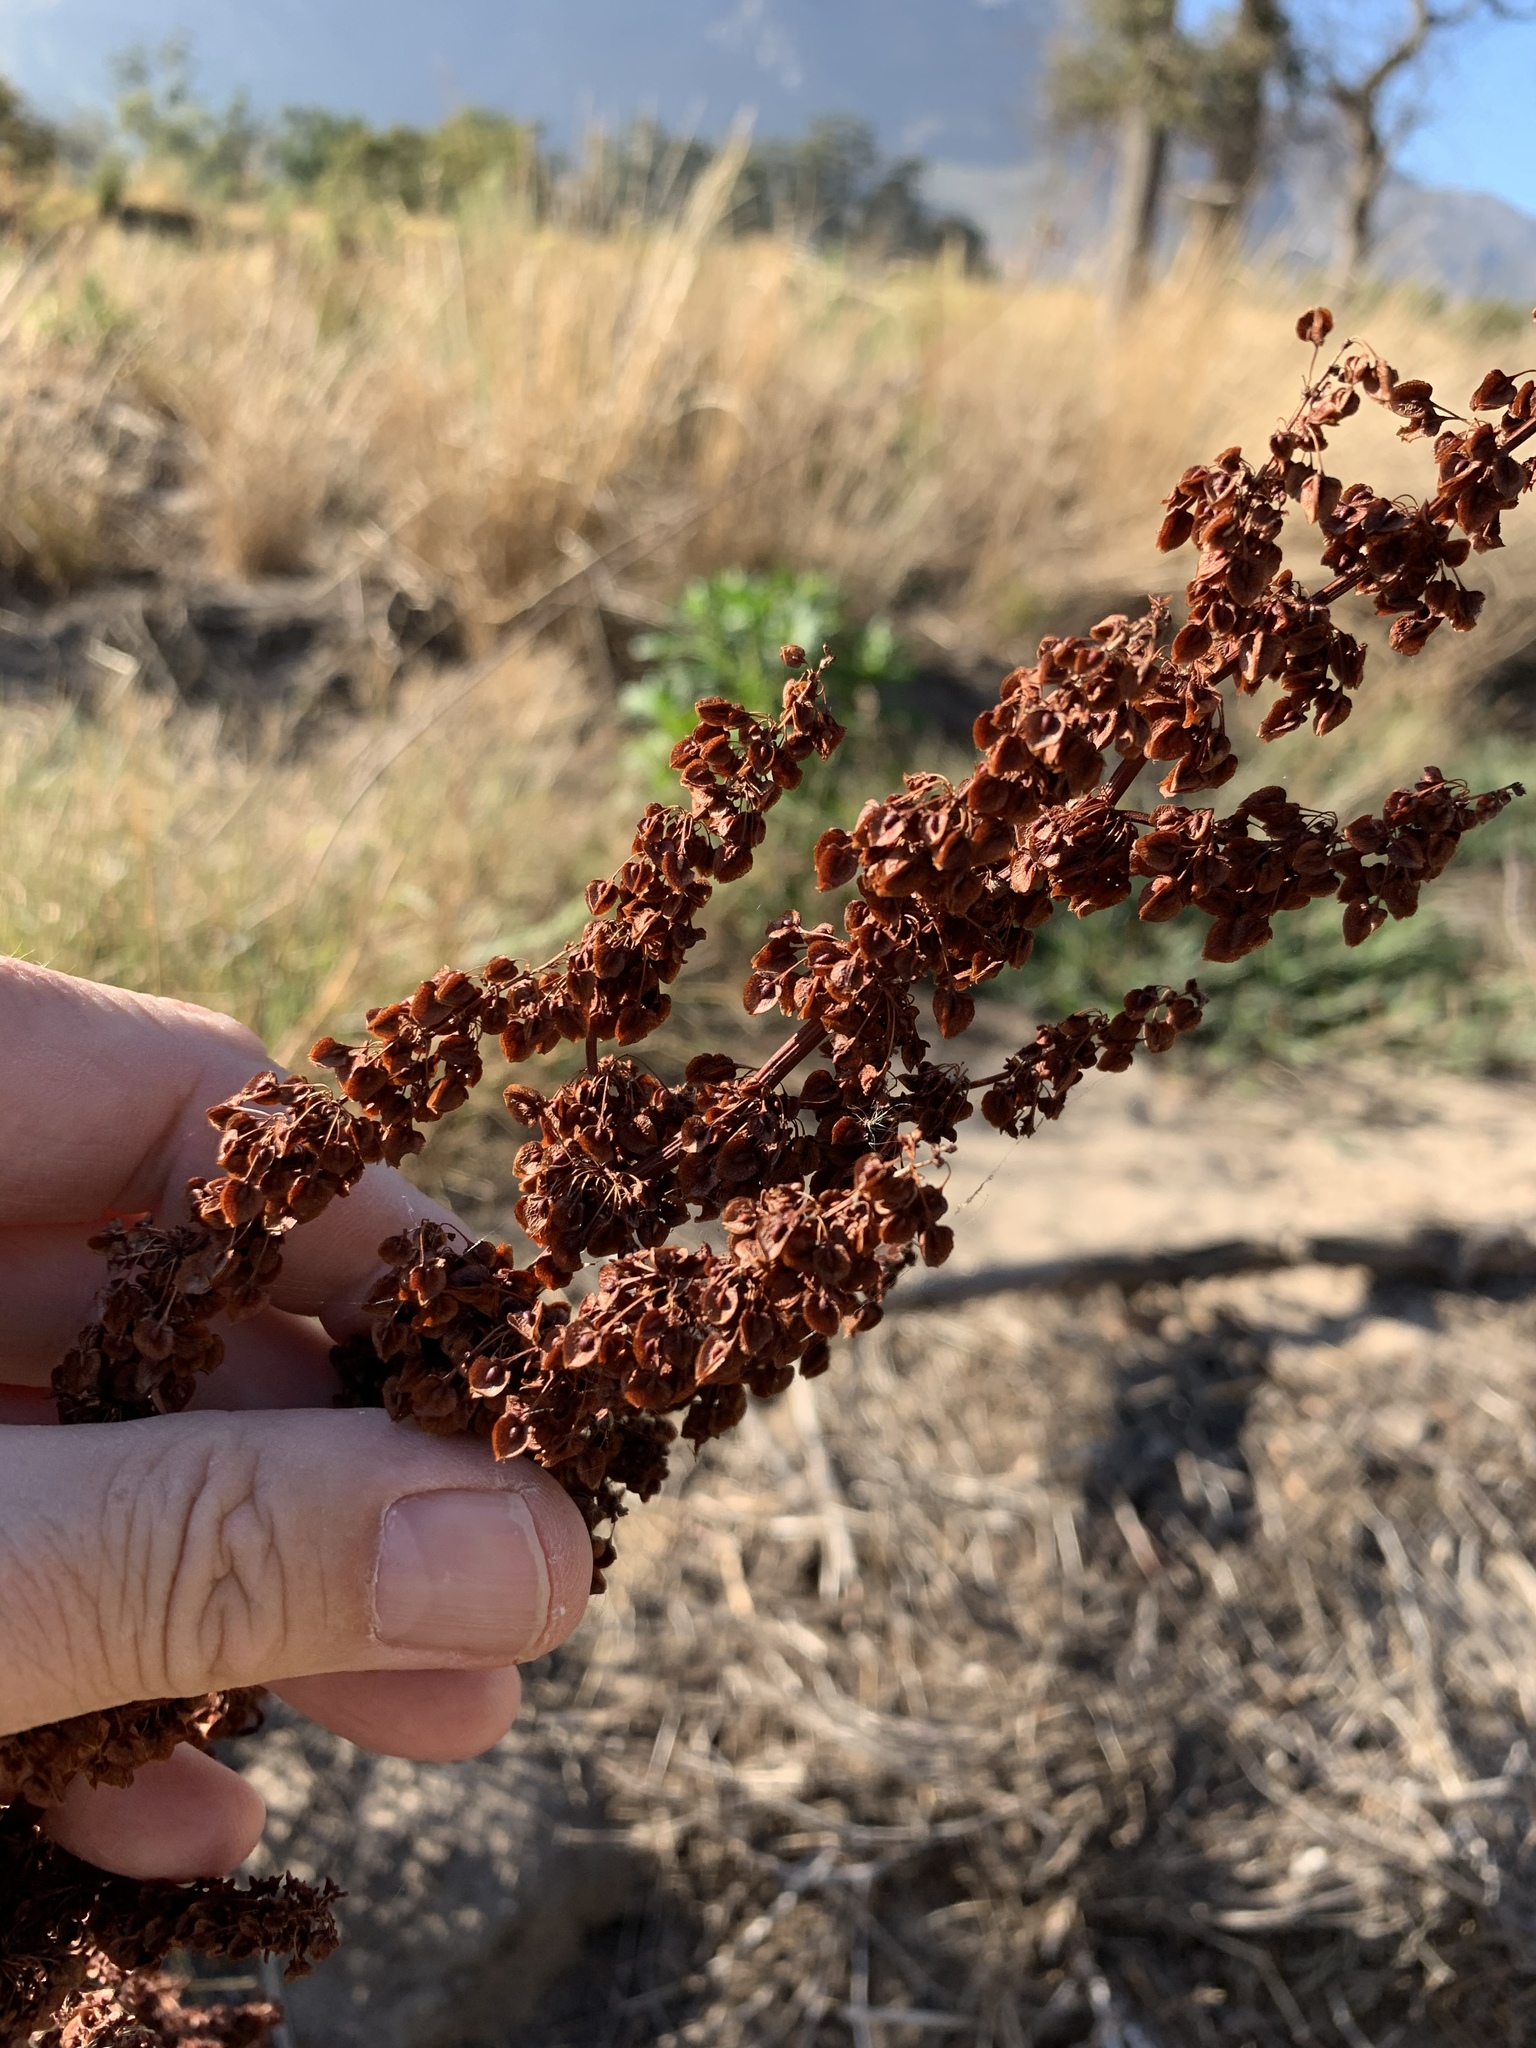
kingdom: Plantae
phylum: Tracheophyta
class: Magnoliopsida
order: Caryophyllales
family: Polygonaceae
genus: Rumex
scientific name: Rumex crispus
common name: Curled dock
